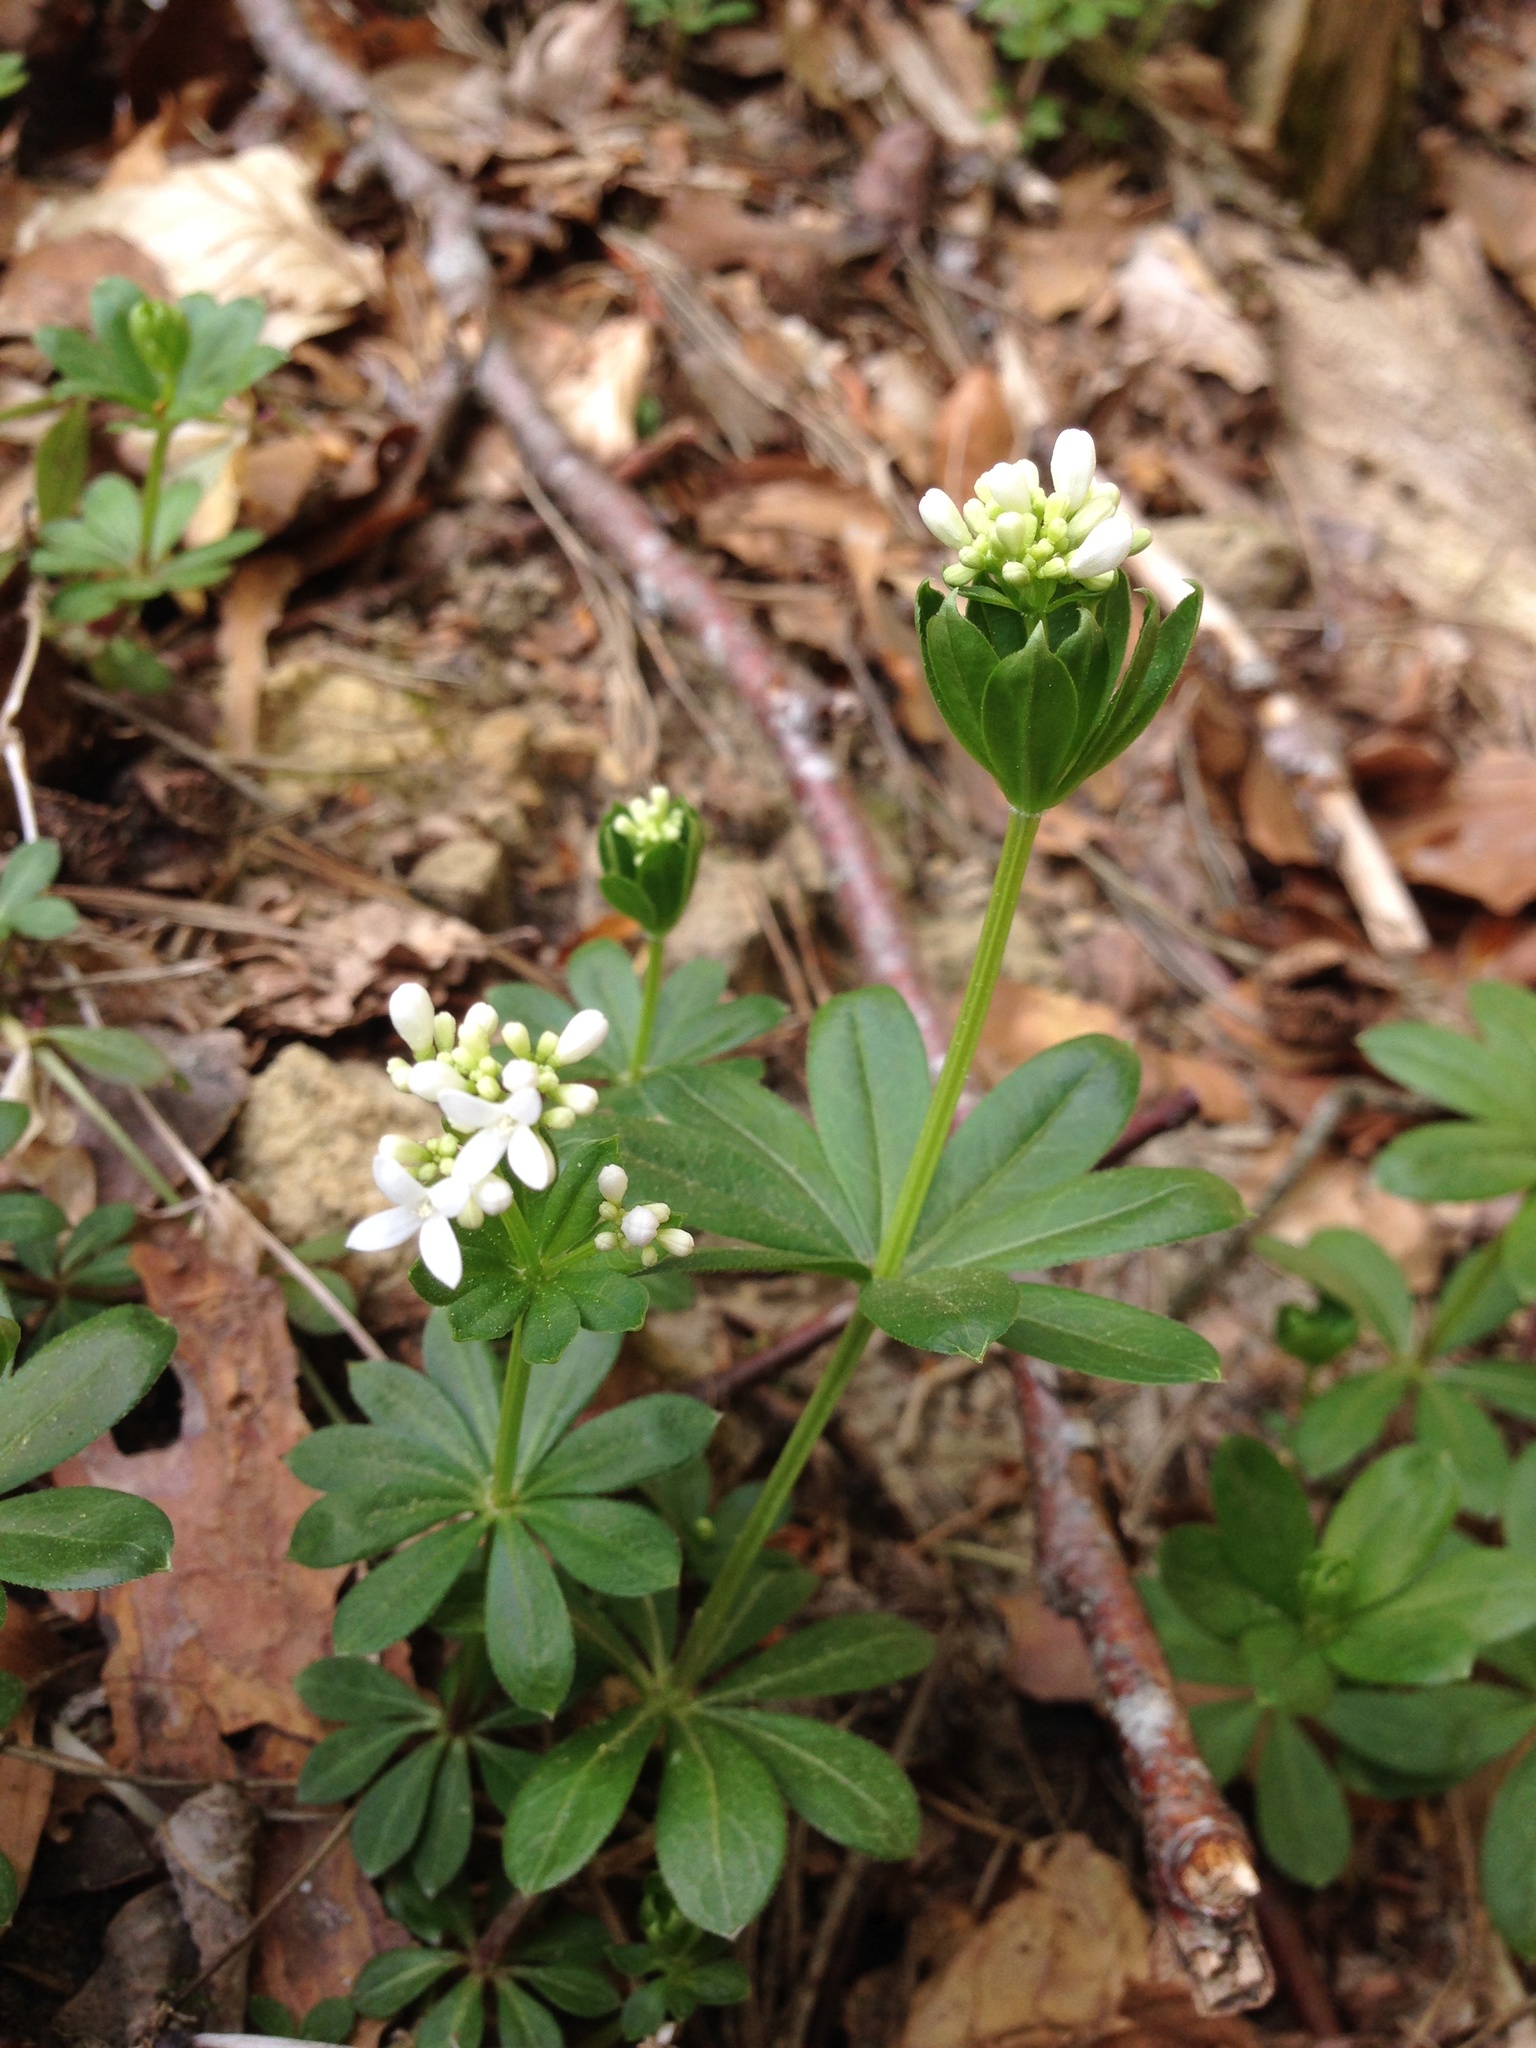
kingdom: Plantae
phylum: Tracheophyta
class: Magnoliopsida
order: Gentianales
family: Rubiaceae
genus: Galium
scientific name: Galium odoratum
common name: Sweet woodruff
